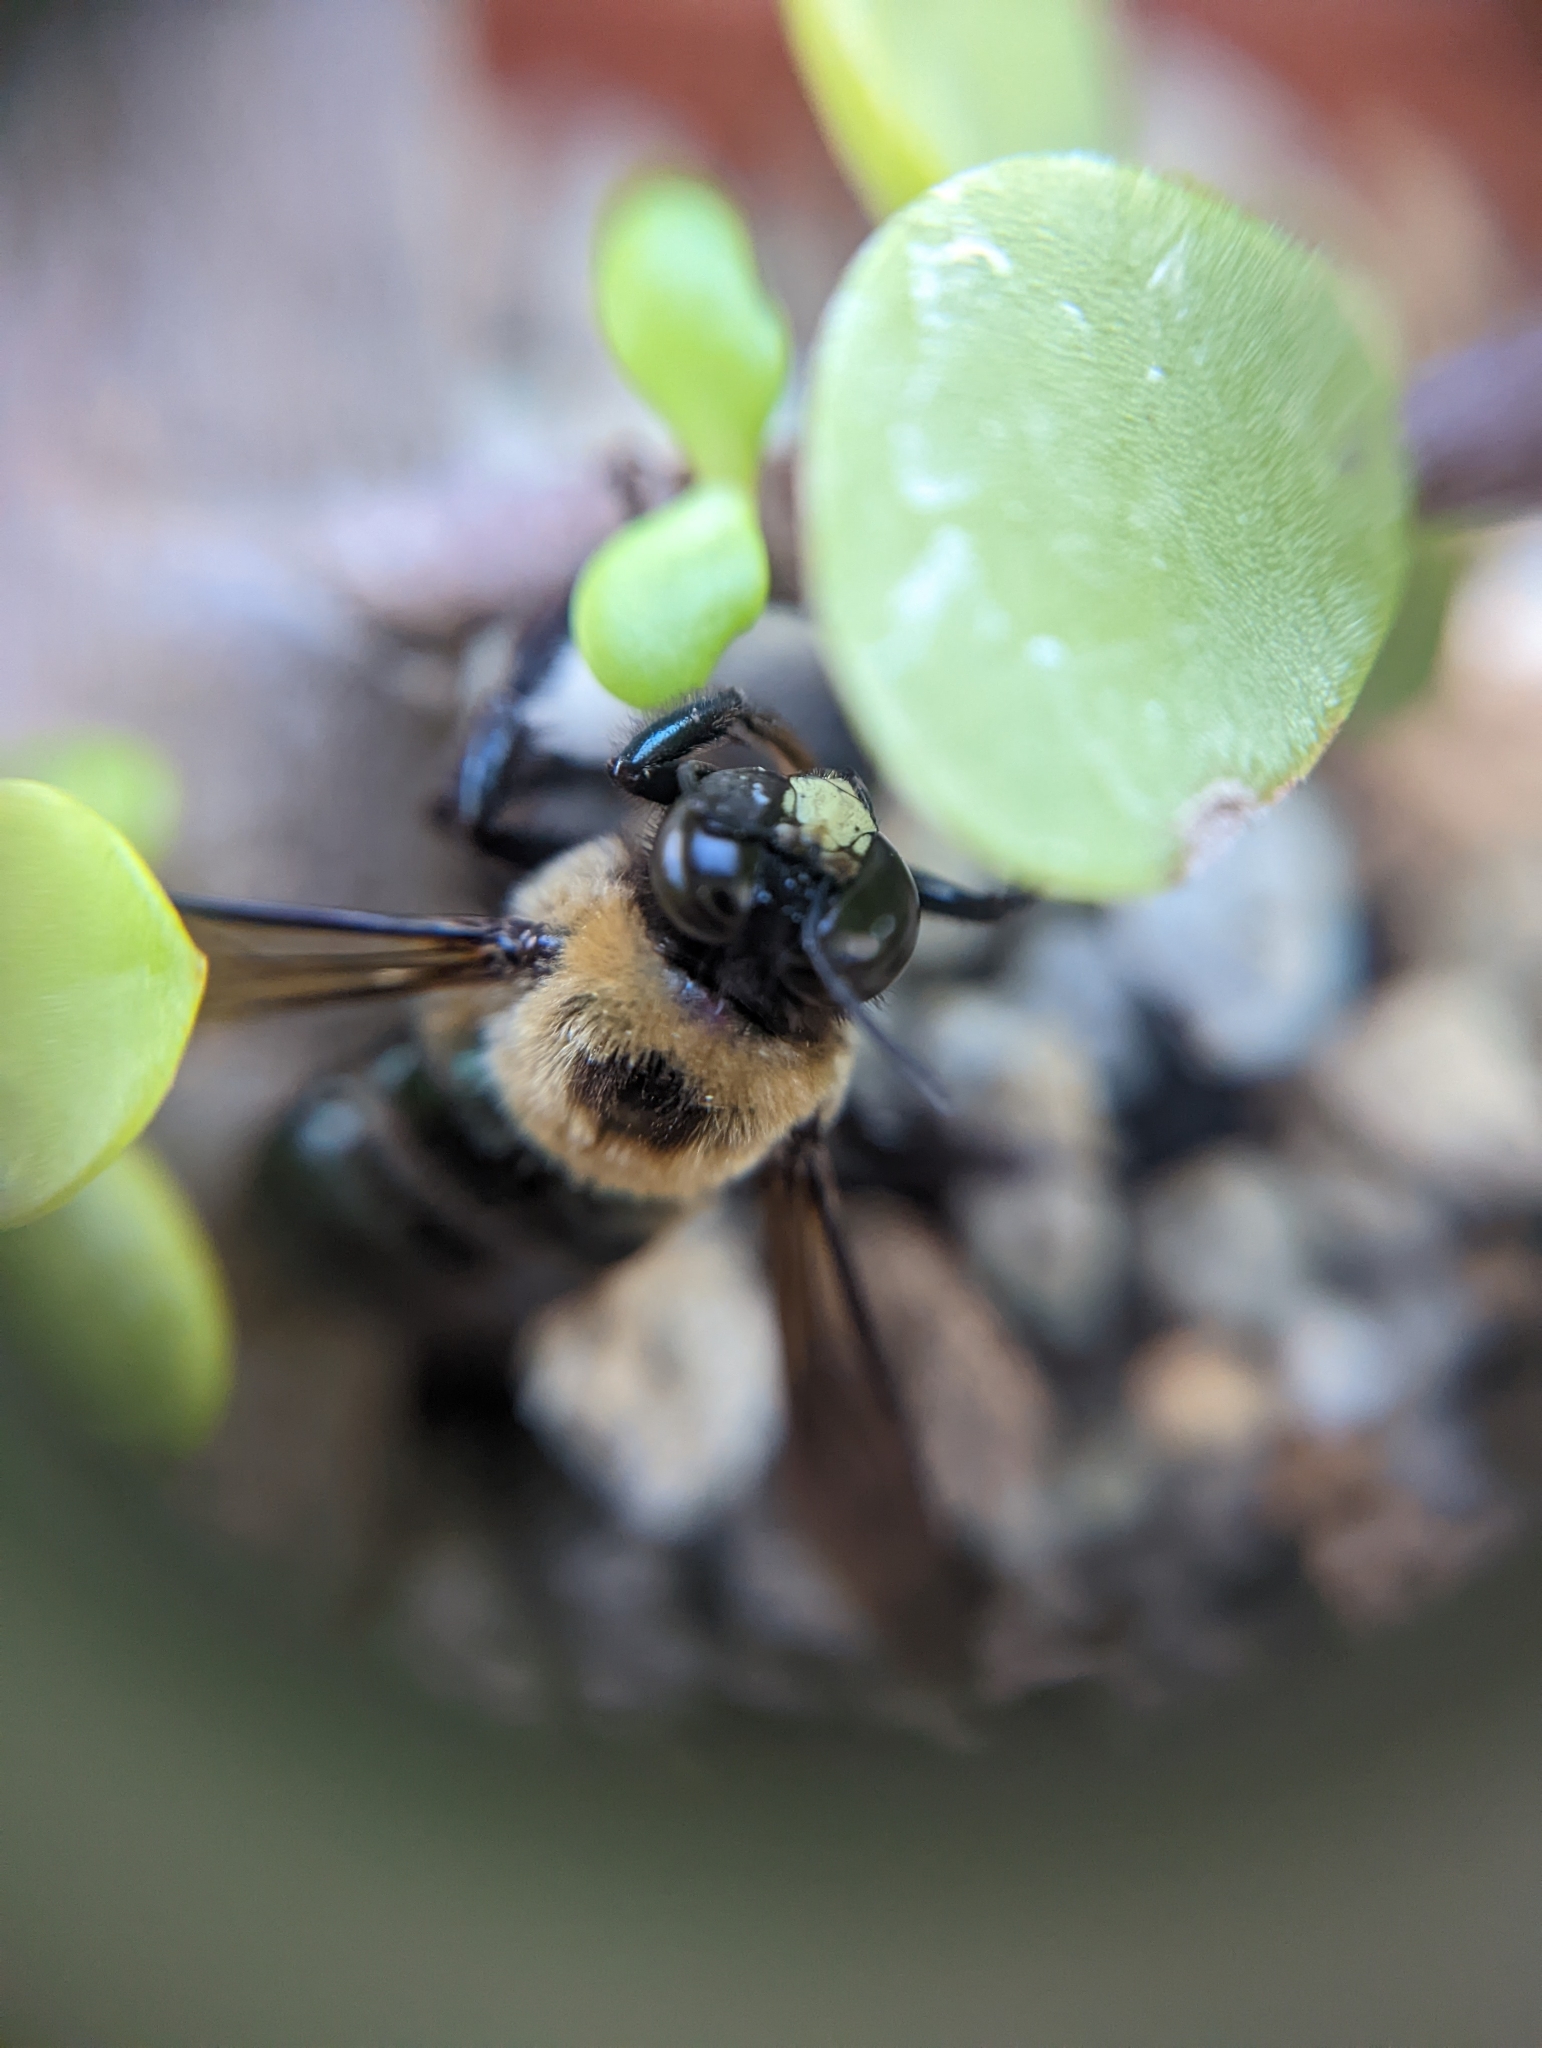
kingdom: Animalia
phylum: Arthropoda
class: Insecta
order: Hymenoptera
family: Apidae
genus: Xylocopa
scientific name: Xylocopa virginica
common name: Carpenter bee
